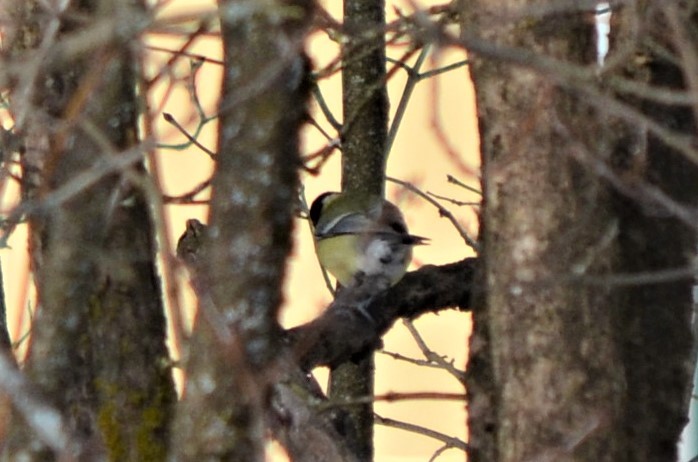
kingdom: Animalia
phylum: Chordata
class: Aves
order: Passeriformes
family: Paridae
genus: Parus
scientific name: Parus major
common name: Great tit
